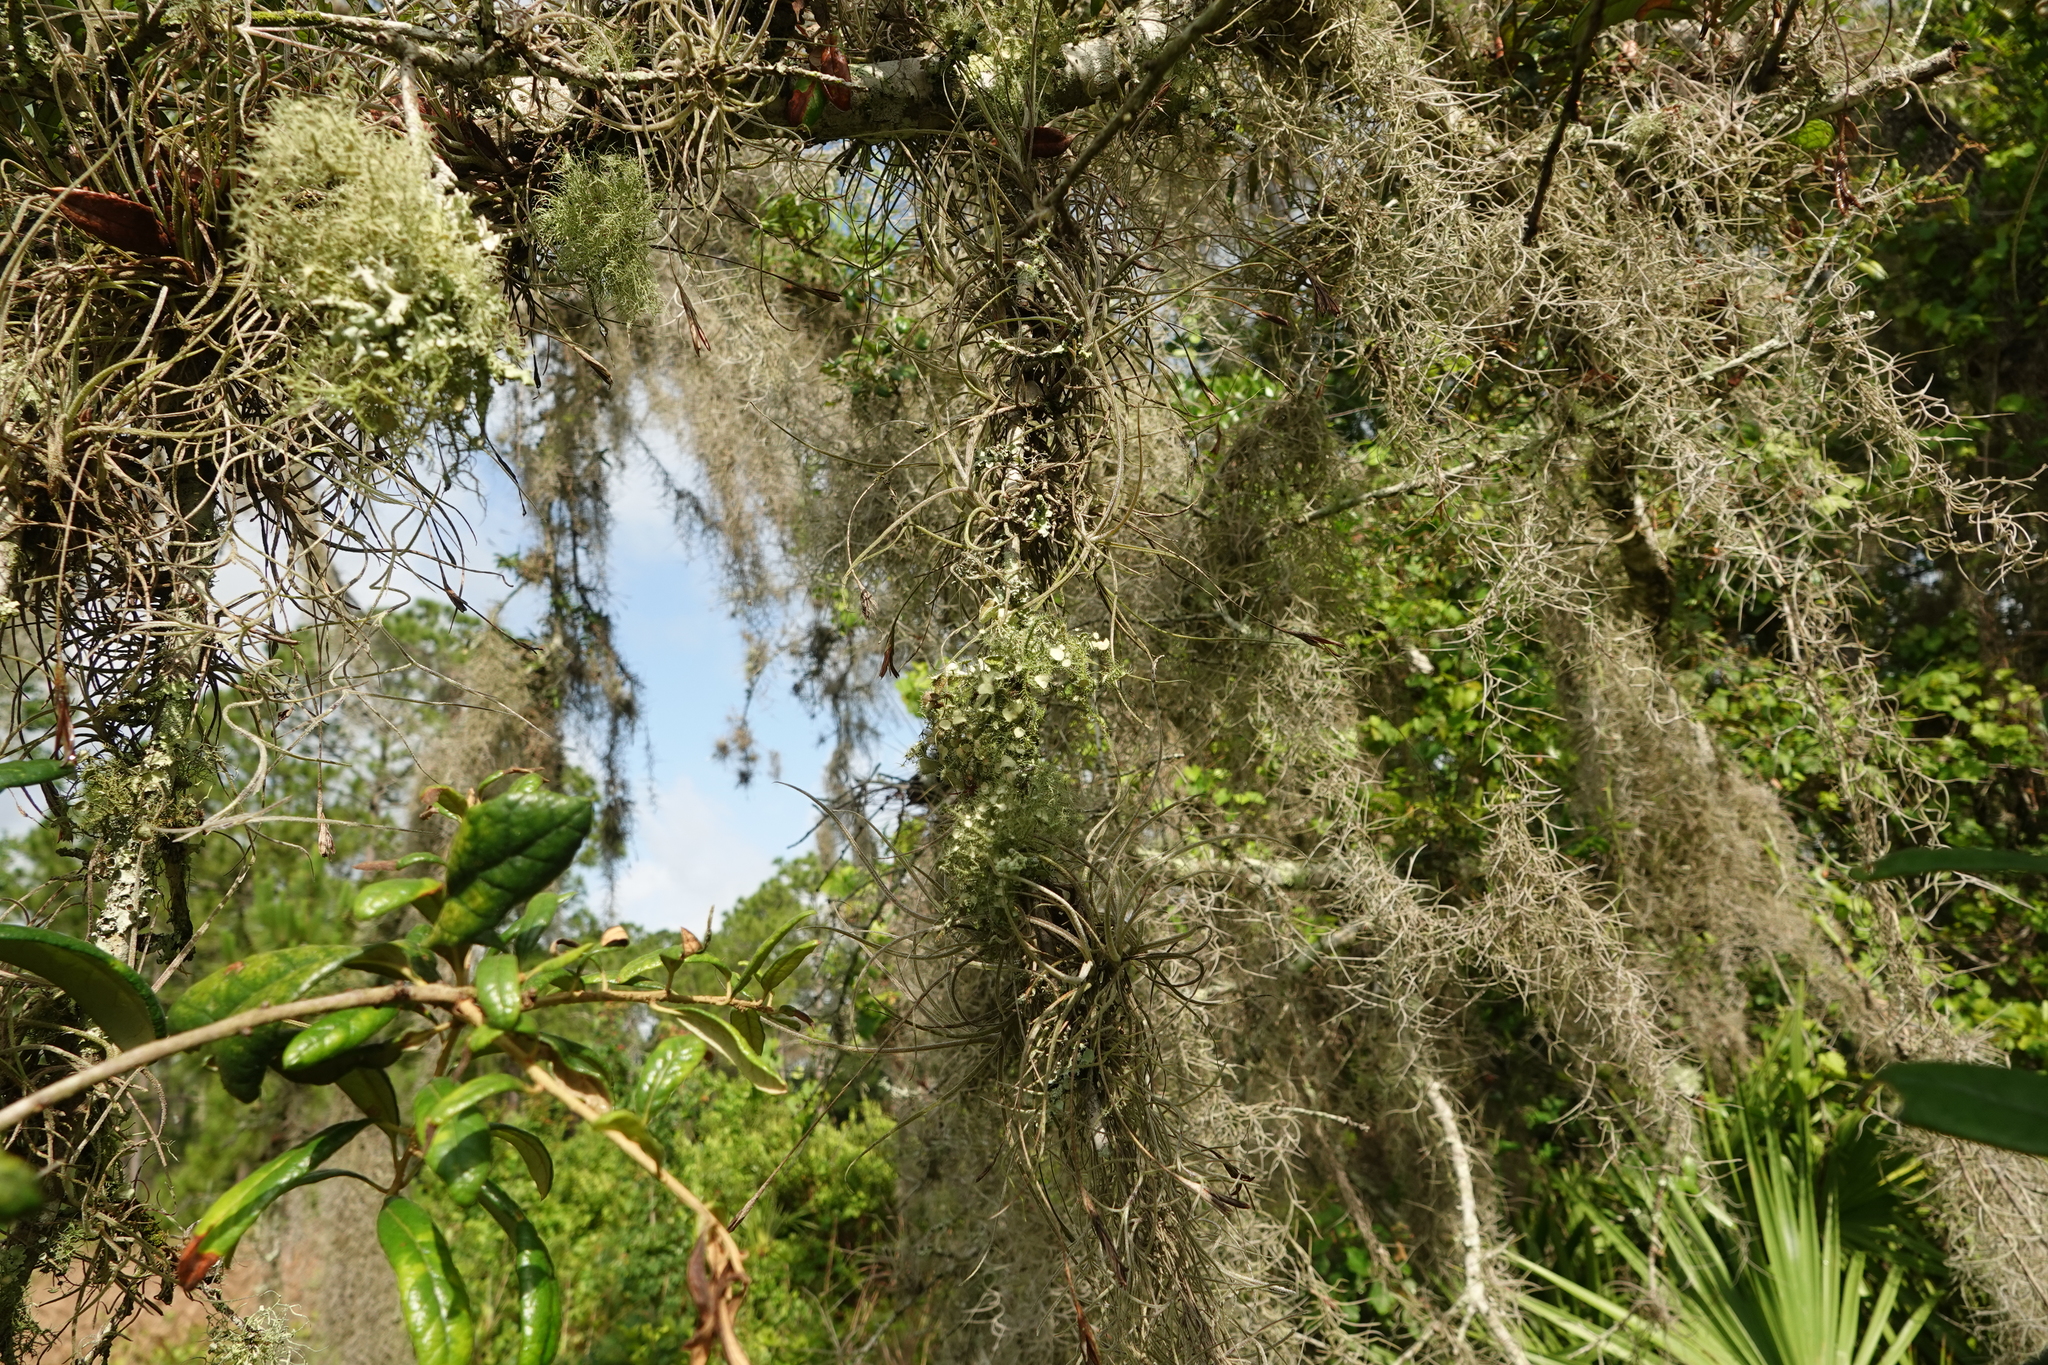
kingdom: Plantae
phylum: Tracheophyta
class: Liliopsida
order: Poales
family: Bromeliaceae
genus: Tillandsia
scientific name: Tillandsia usneoides
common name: Spanish moss
